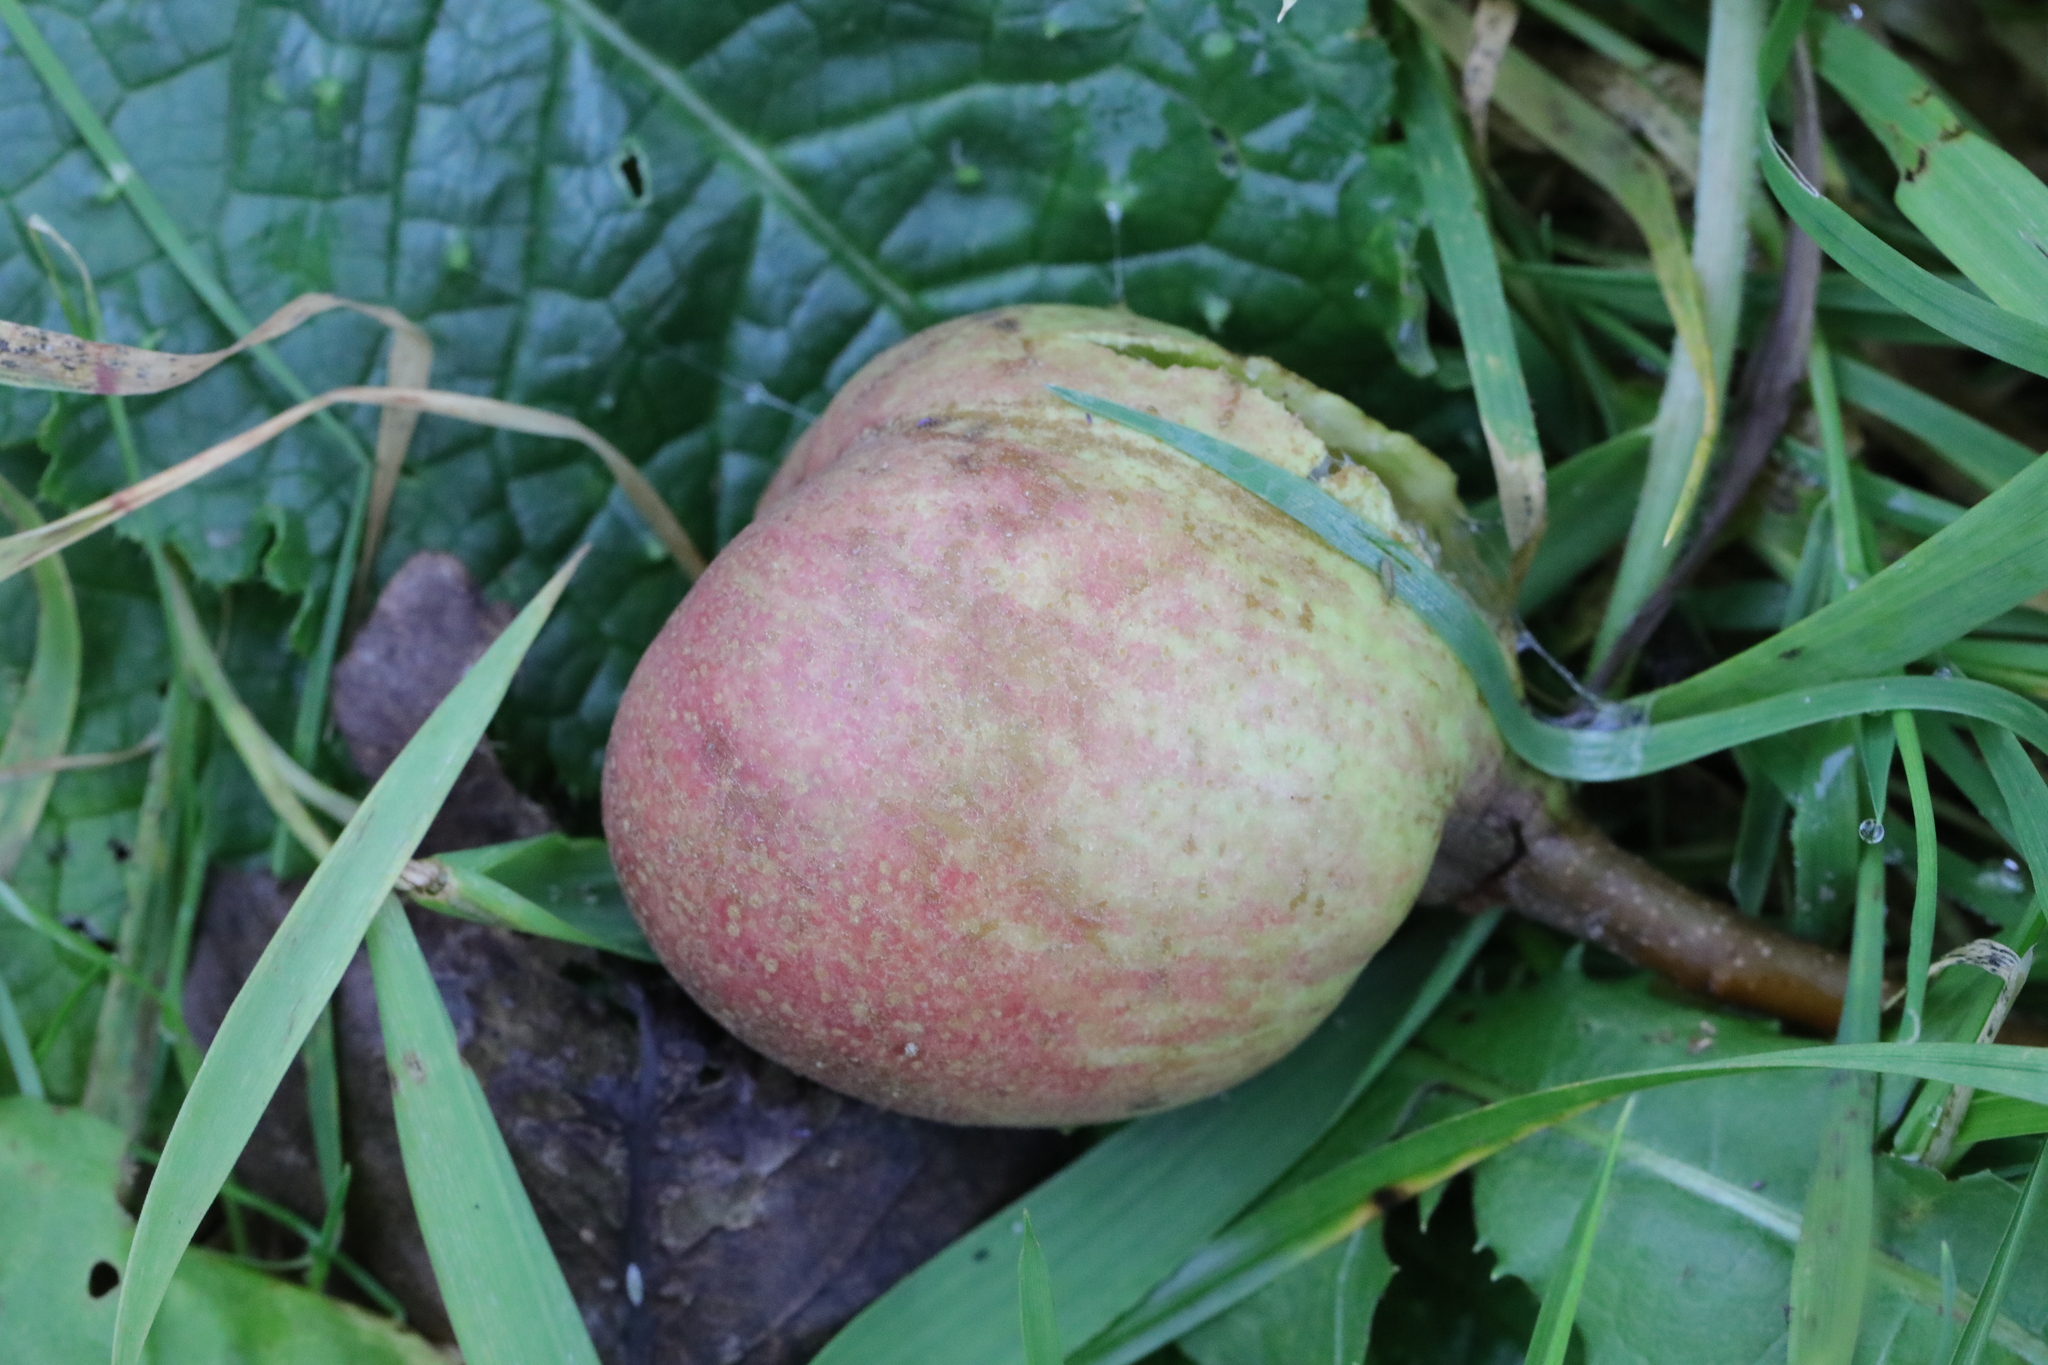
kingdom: Plantae
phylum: Tracheophyta
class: Magnoliopsida
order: Rosales
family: Rosaceae
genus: Malus
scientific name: Malus domestica
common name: Apple
